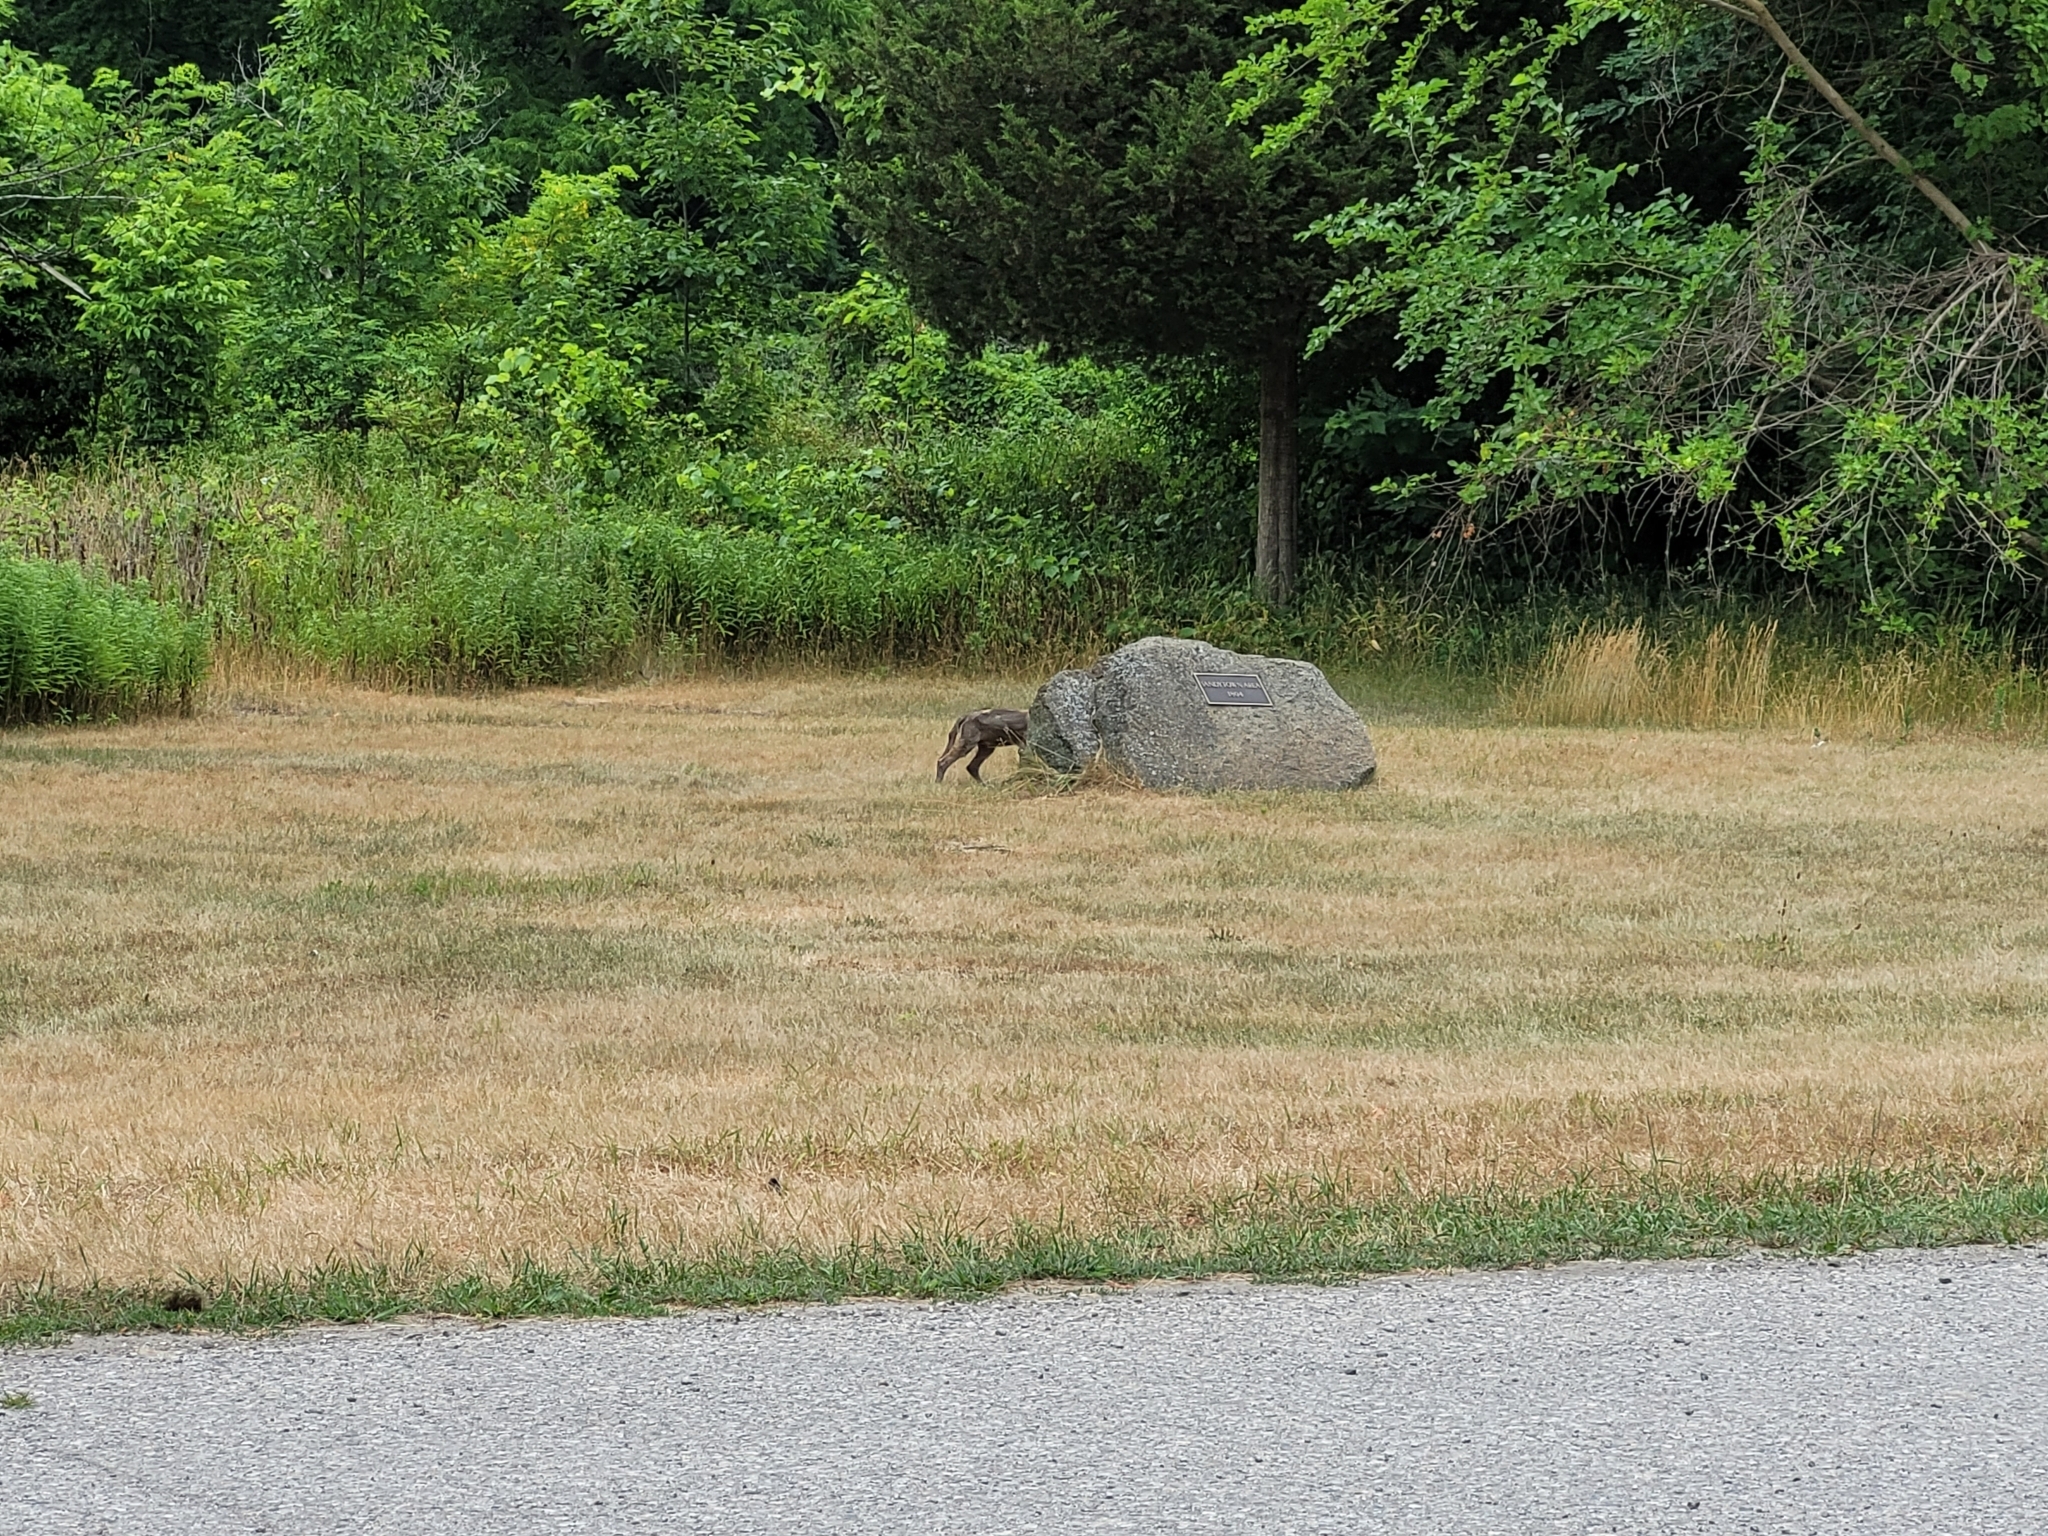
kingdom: Animalia
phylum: Chordata
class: Mammalia
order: Carnivora
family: Canidae
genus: Canis
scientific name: Canis latrans
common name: Coyote
